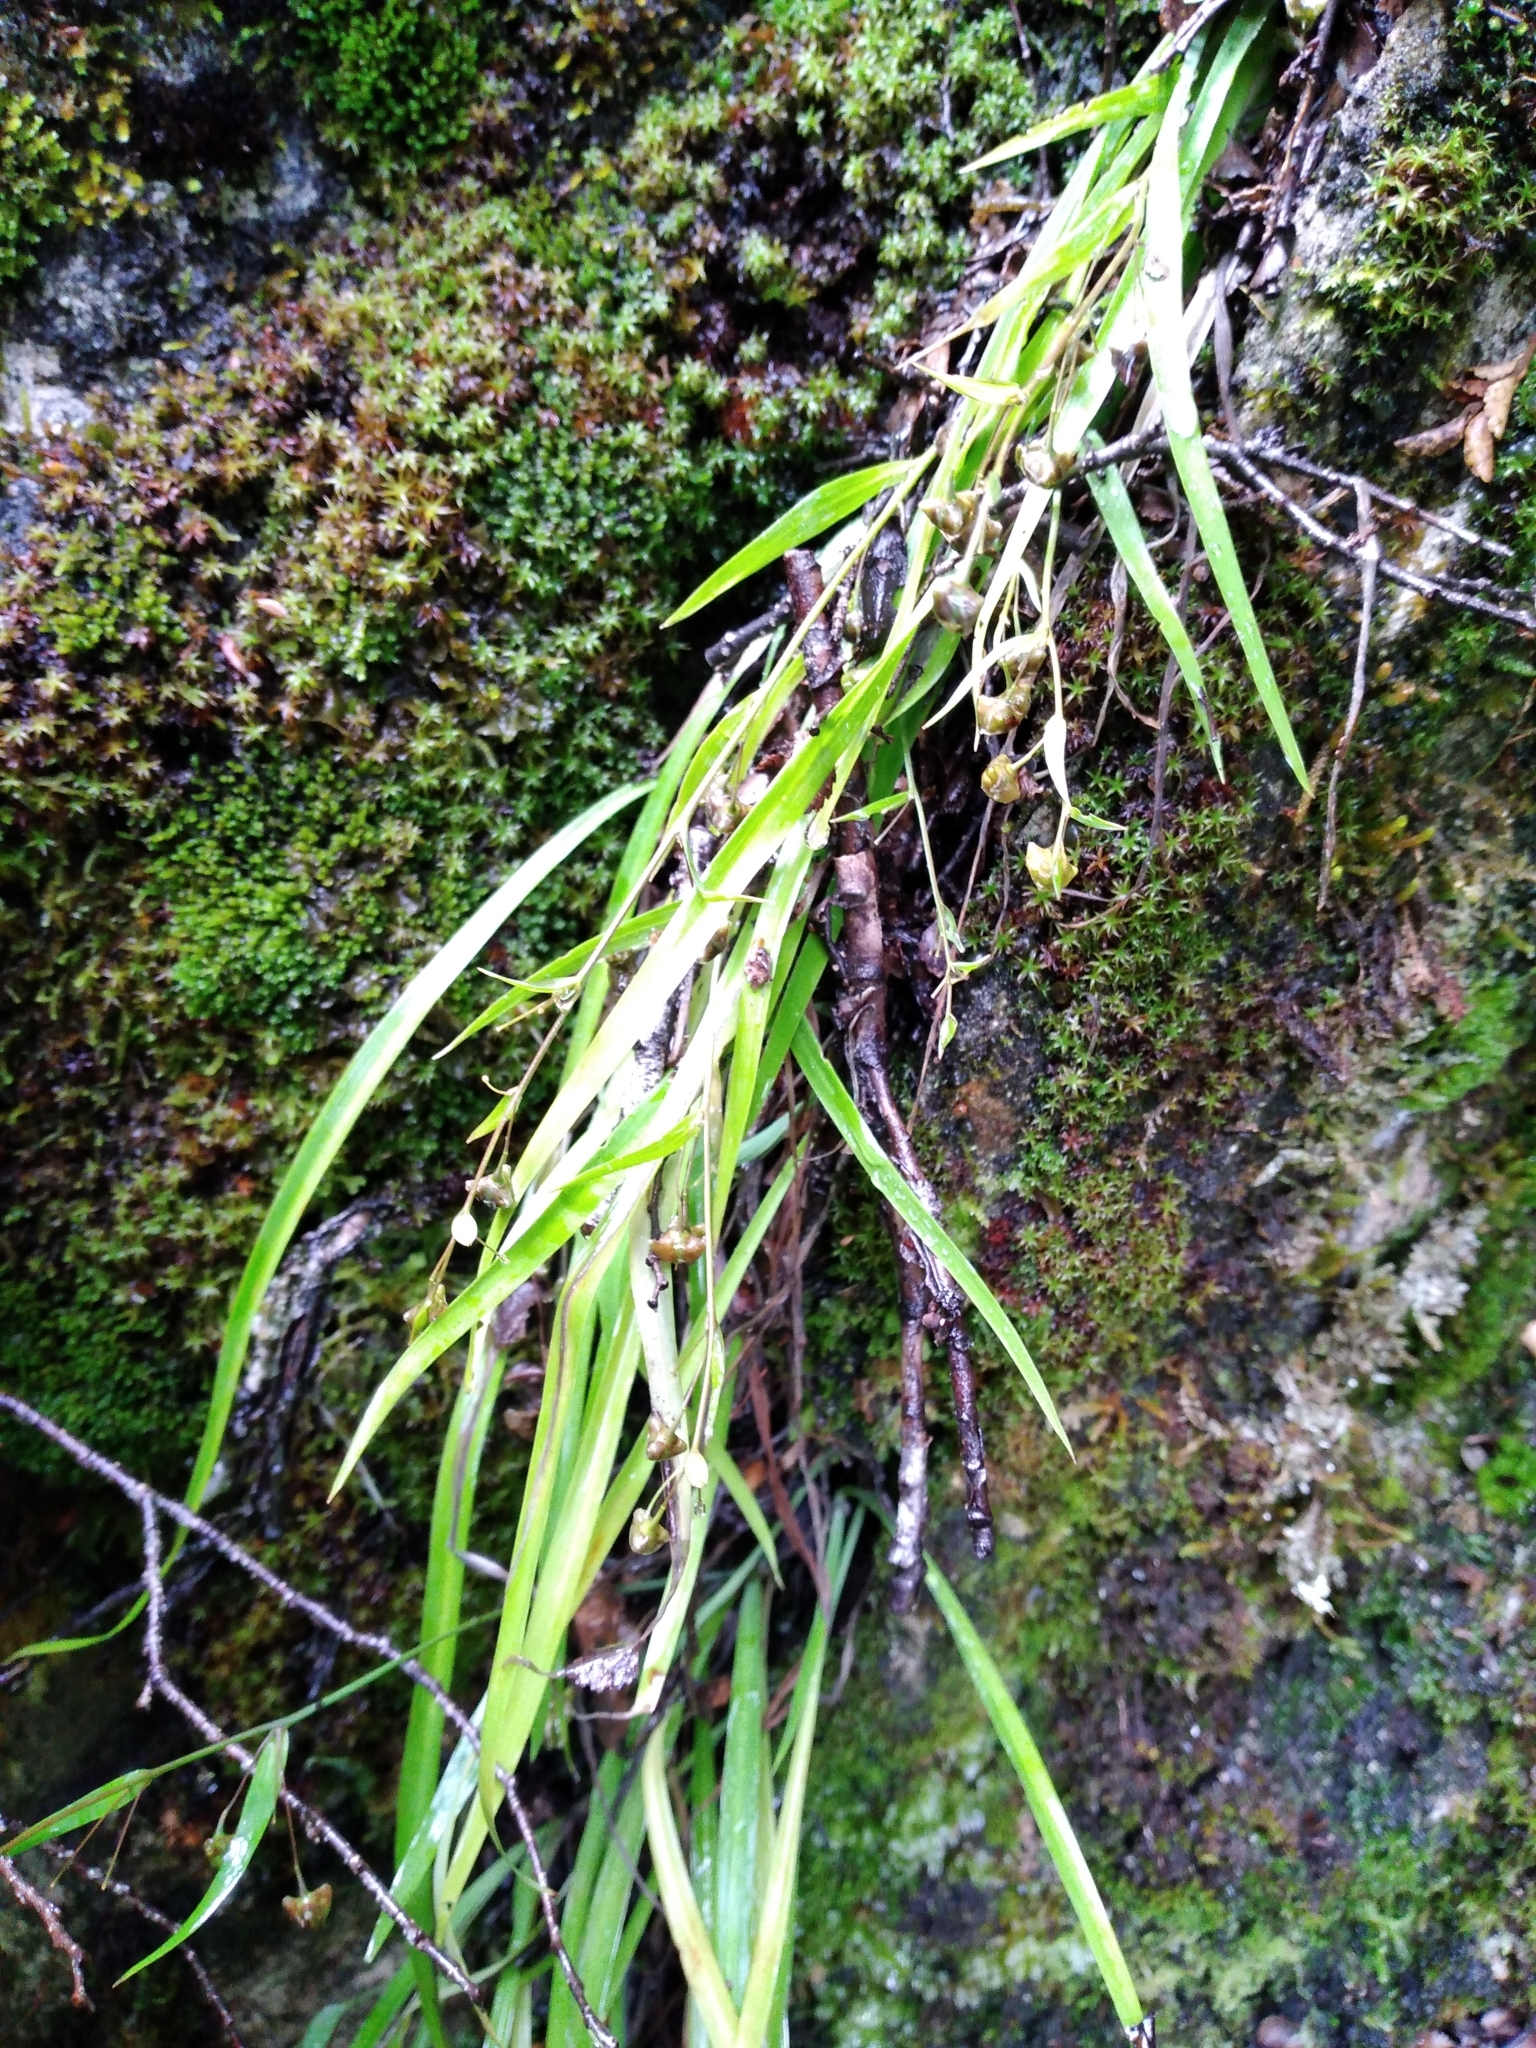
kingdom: Plantae
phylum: Tracheophyta
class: Liliopsida
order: Asparagales
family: Asparagaceae
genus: Arthropodium
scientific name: Arthropodium candidum
